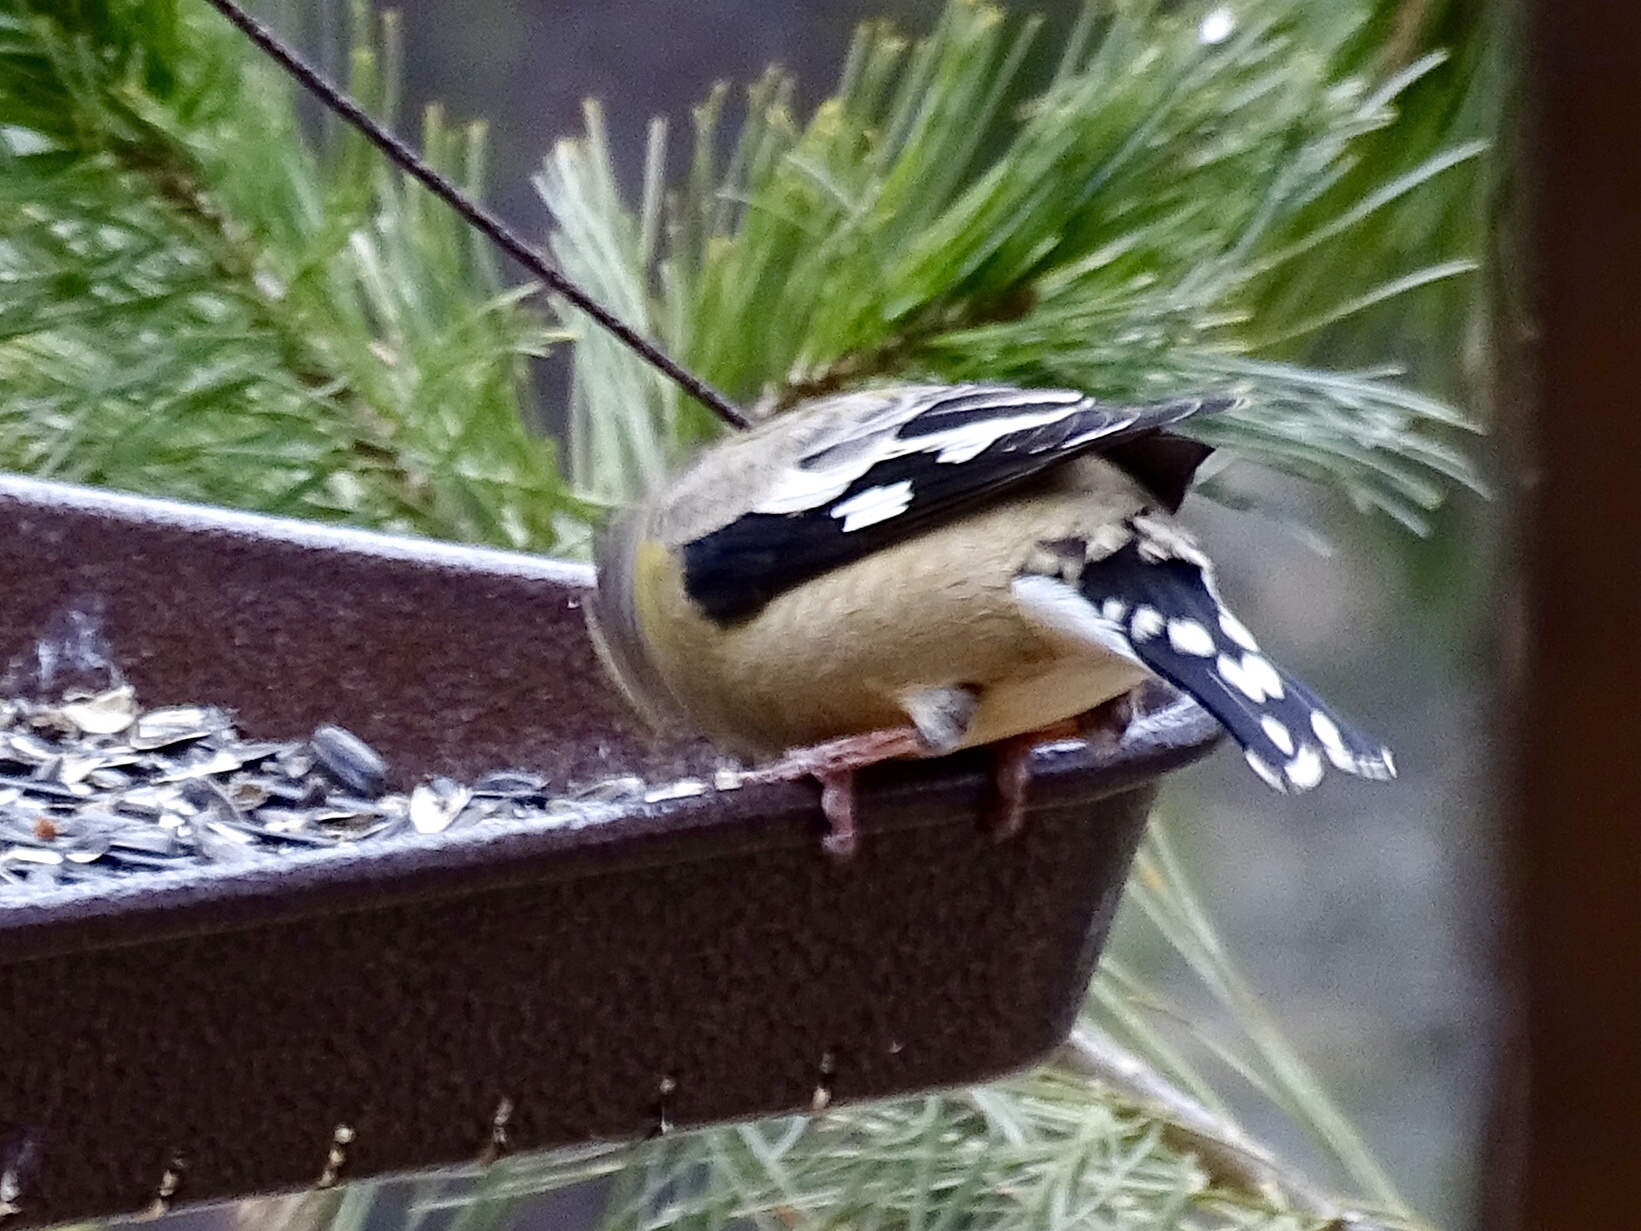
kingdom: Animalia
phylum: Chordata
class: Aves
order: Passeriformes
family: Fringillidae
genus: Hesperiphona
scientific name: Hesperiphona vespertina
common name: Evening grosbeak
